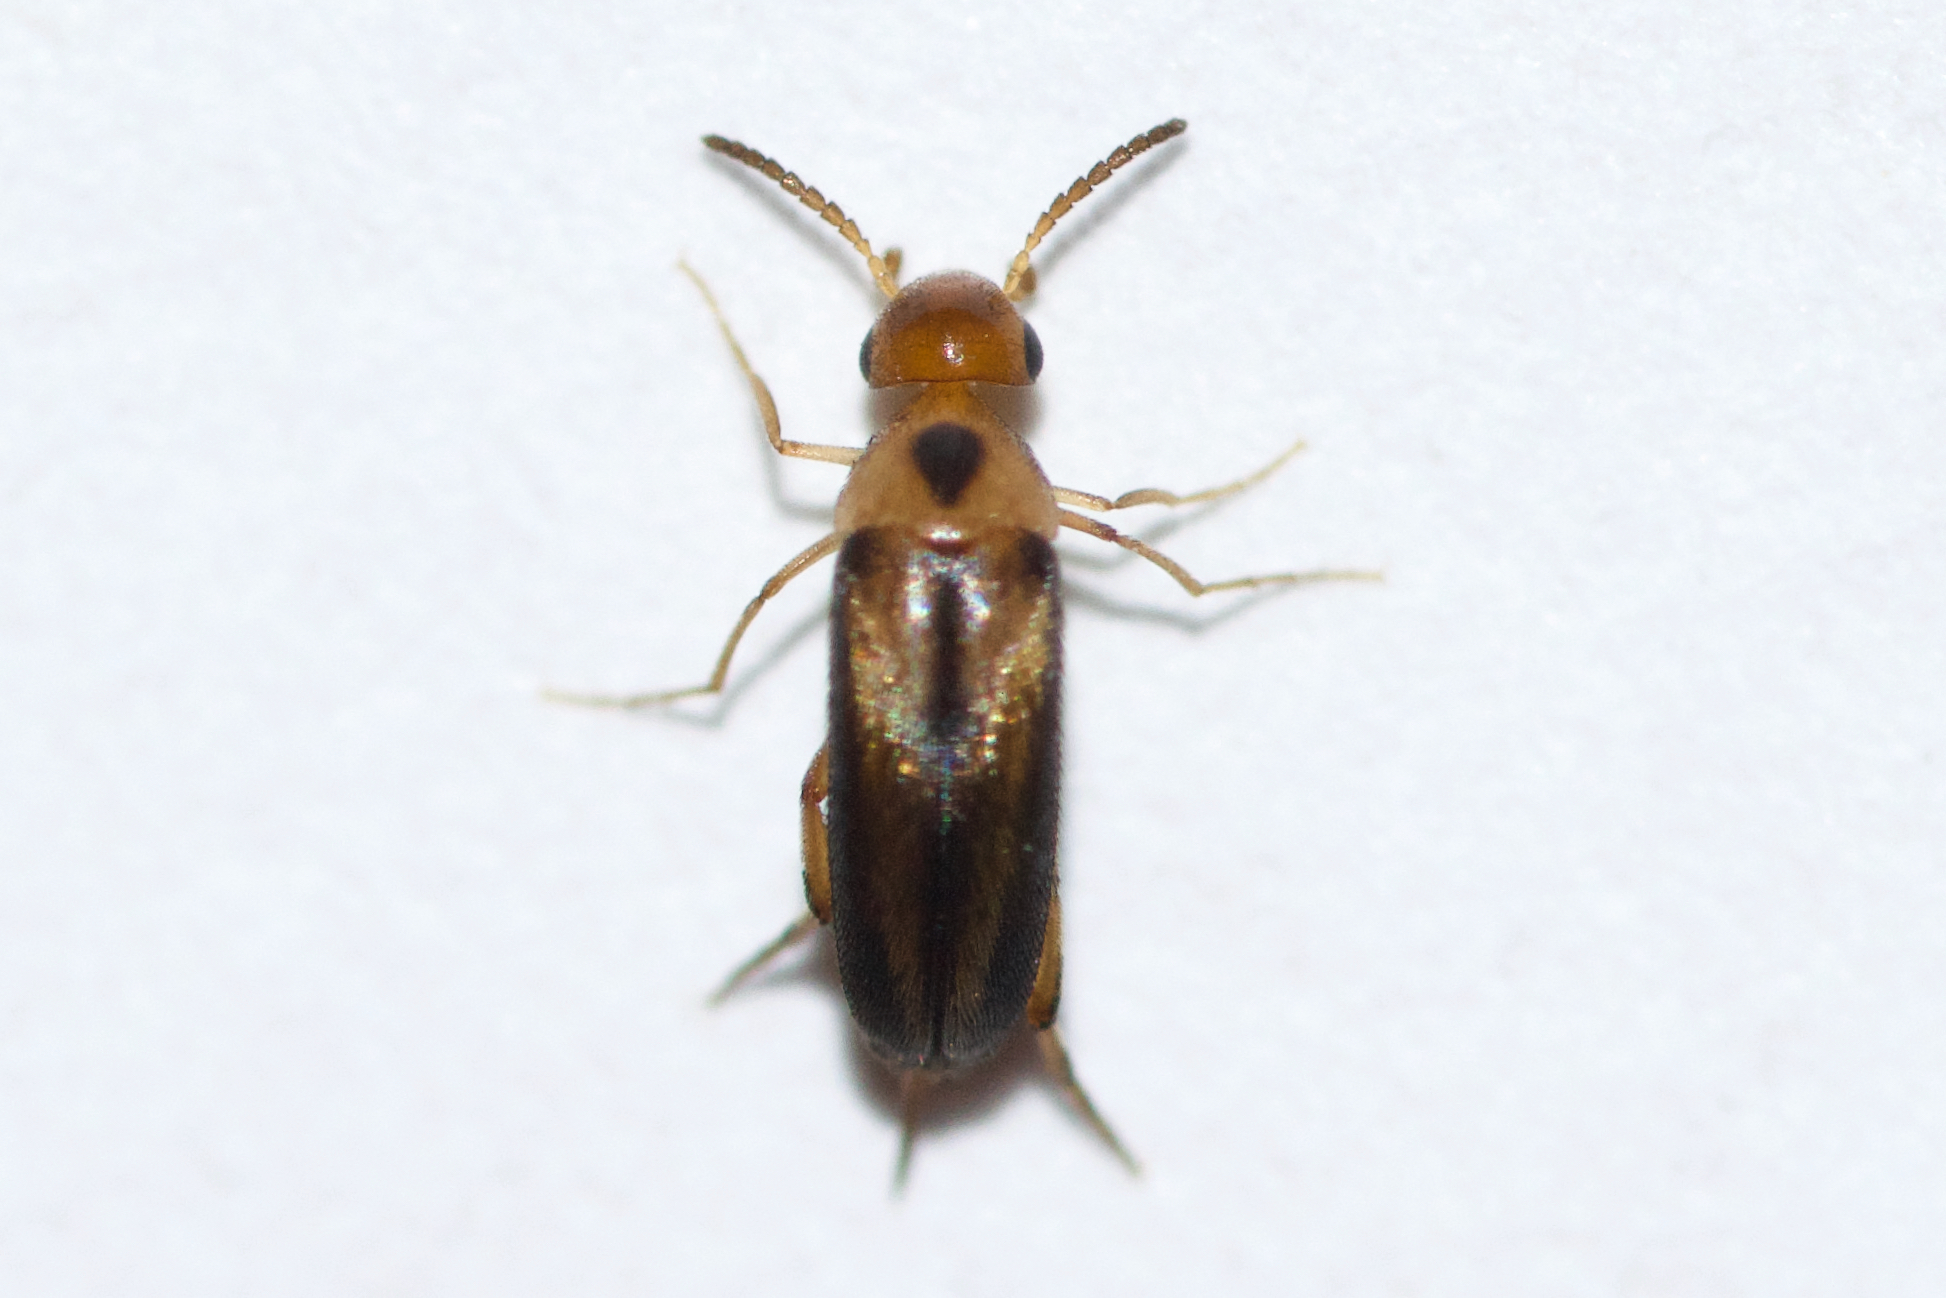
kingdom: Animalia
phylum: Arthropoda
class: Insecta
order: Coleoptera
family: Mordellidae
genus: Mordellistena
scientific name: Mordellistena limbalis
